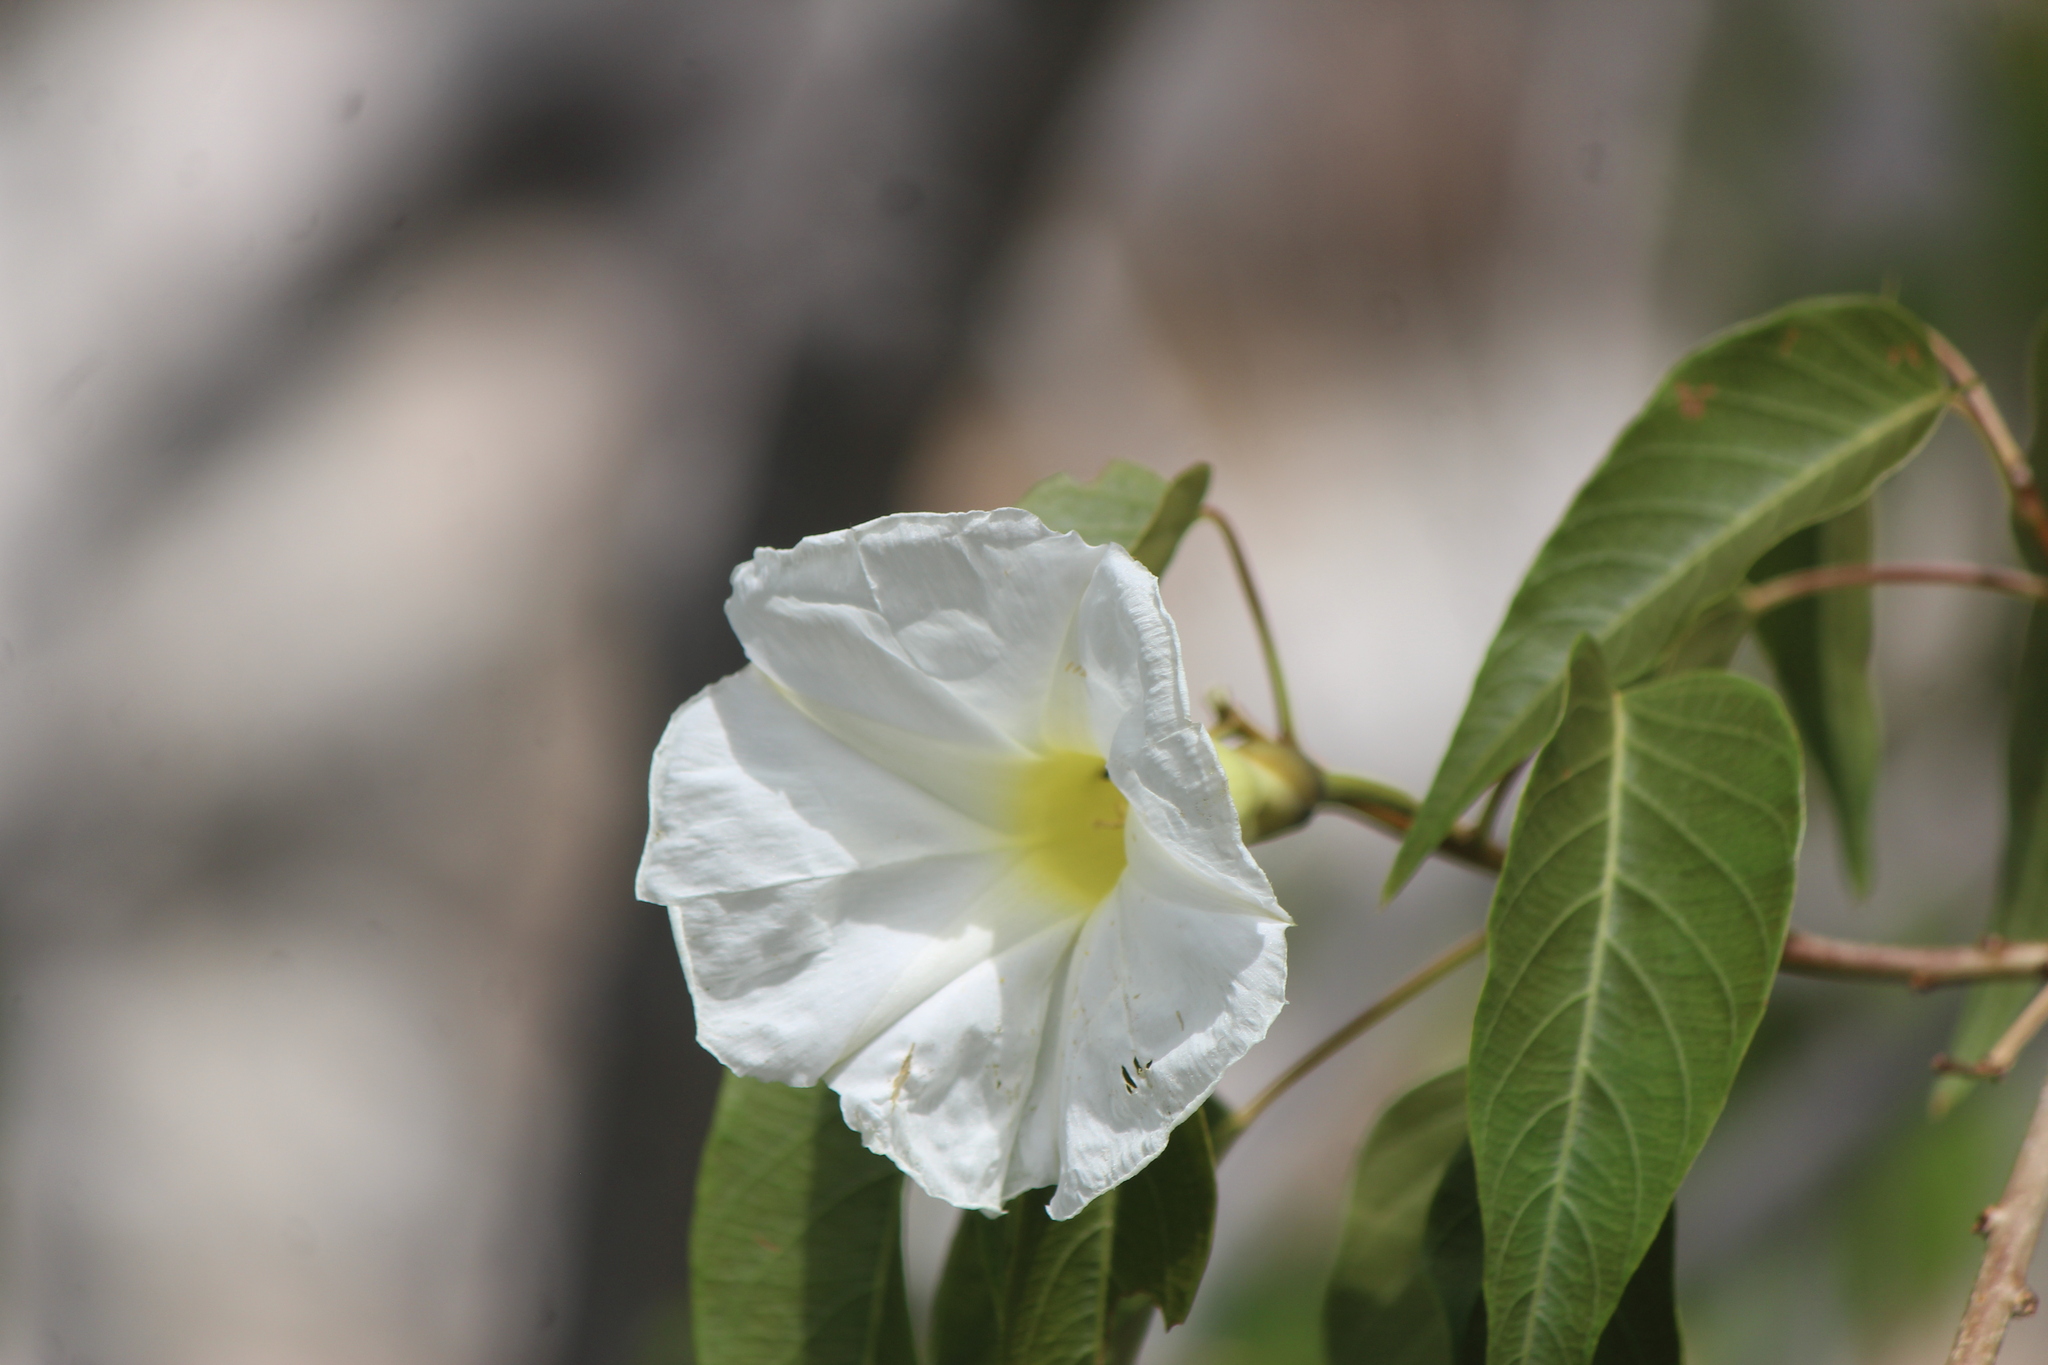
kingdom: Plantae
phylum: Tracheophyta
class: Magnoliopsida
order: Solanales
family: Convolvulaceae
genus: Ipomoea
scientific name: Ipomoea rzedowskii
